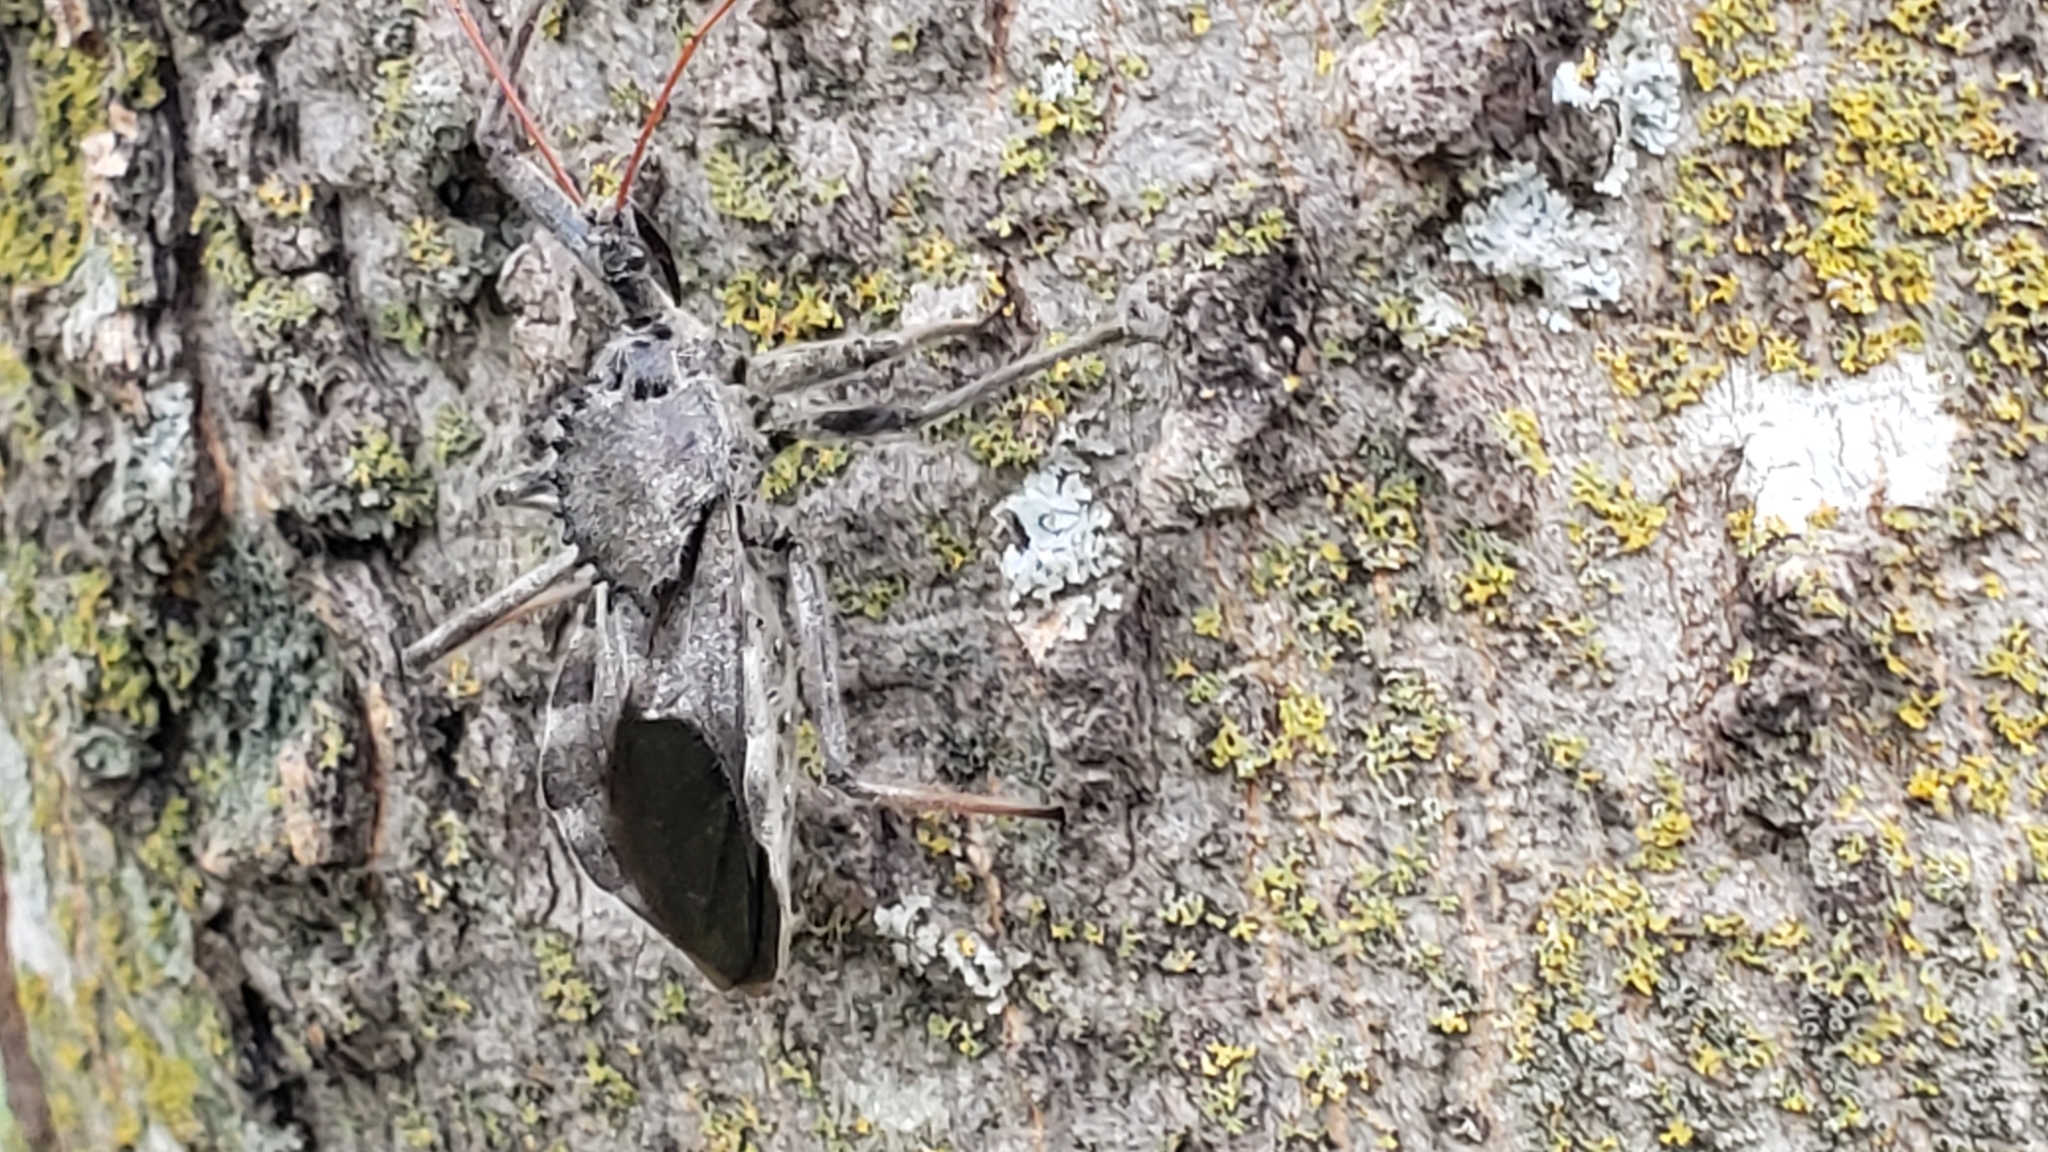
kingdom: Animalia
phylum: Arthropoda
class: Insecta
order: Hemiptera
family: Reduviidae
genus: Arilus
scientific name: Arilus cristatus
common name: North american wheel bug
